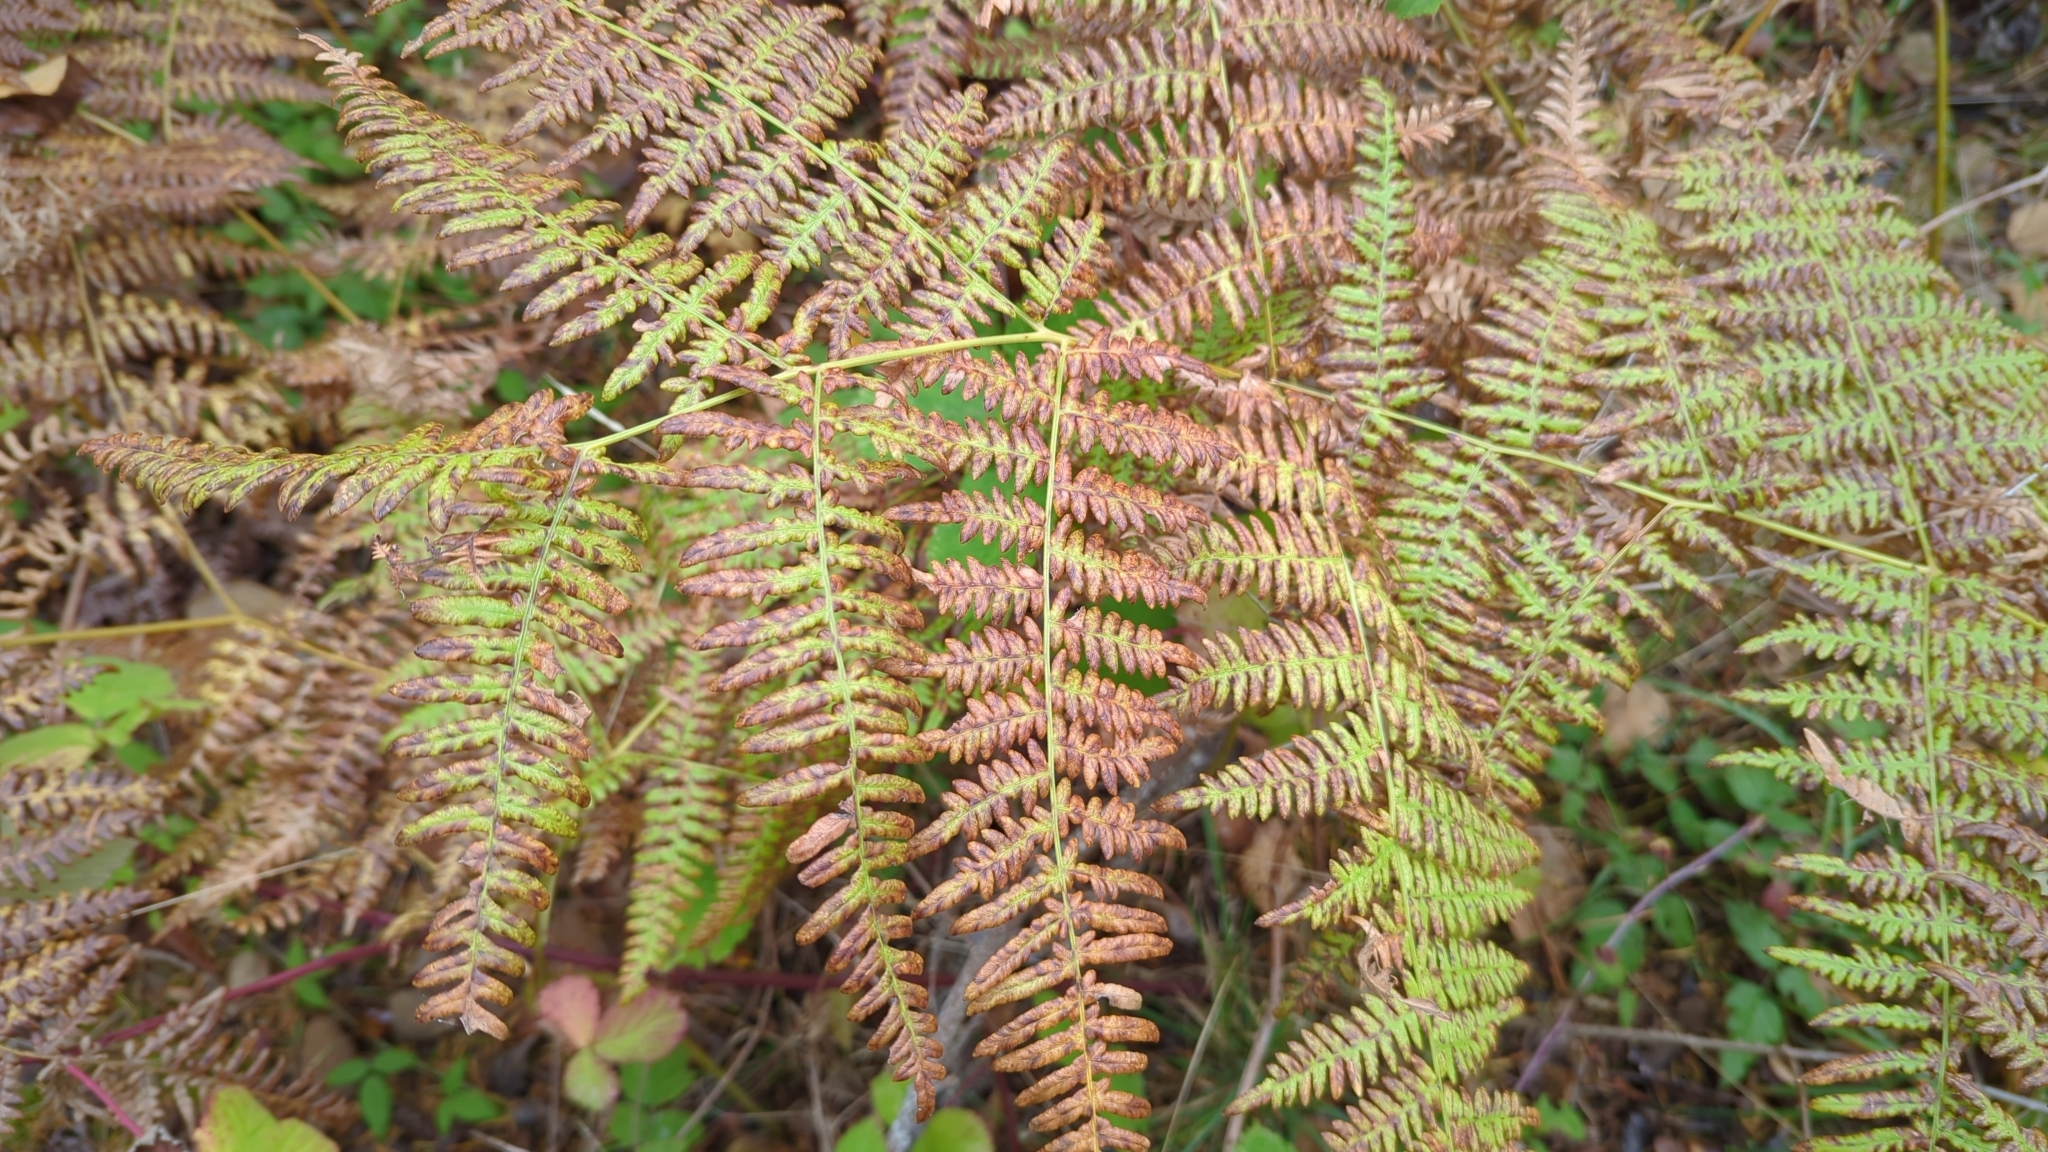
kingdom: Plantae
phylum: Tracheophyta
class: Polypodiopsida
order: Polypodiales
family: Dennstaedtiaceae
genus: Pteridium
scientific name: Pteridium aquilinum
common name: Bracken
